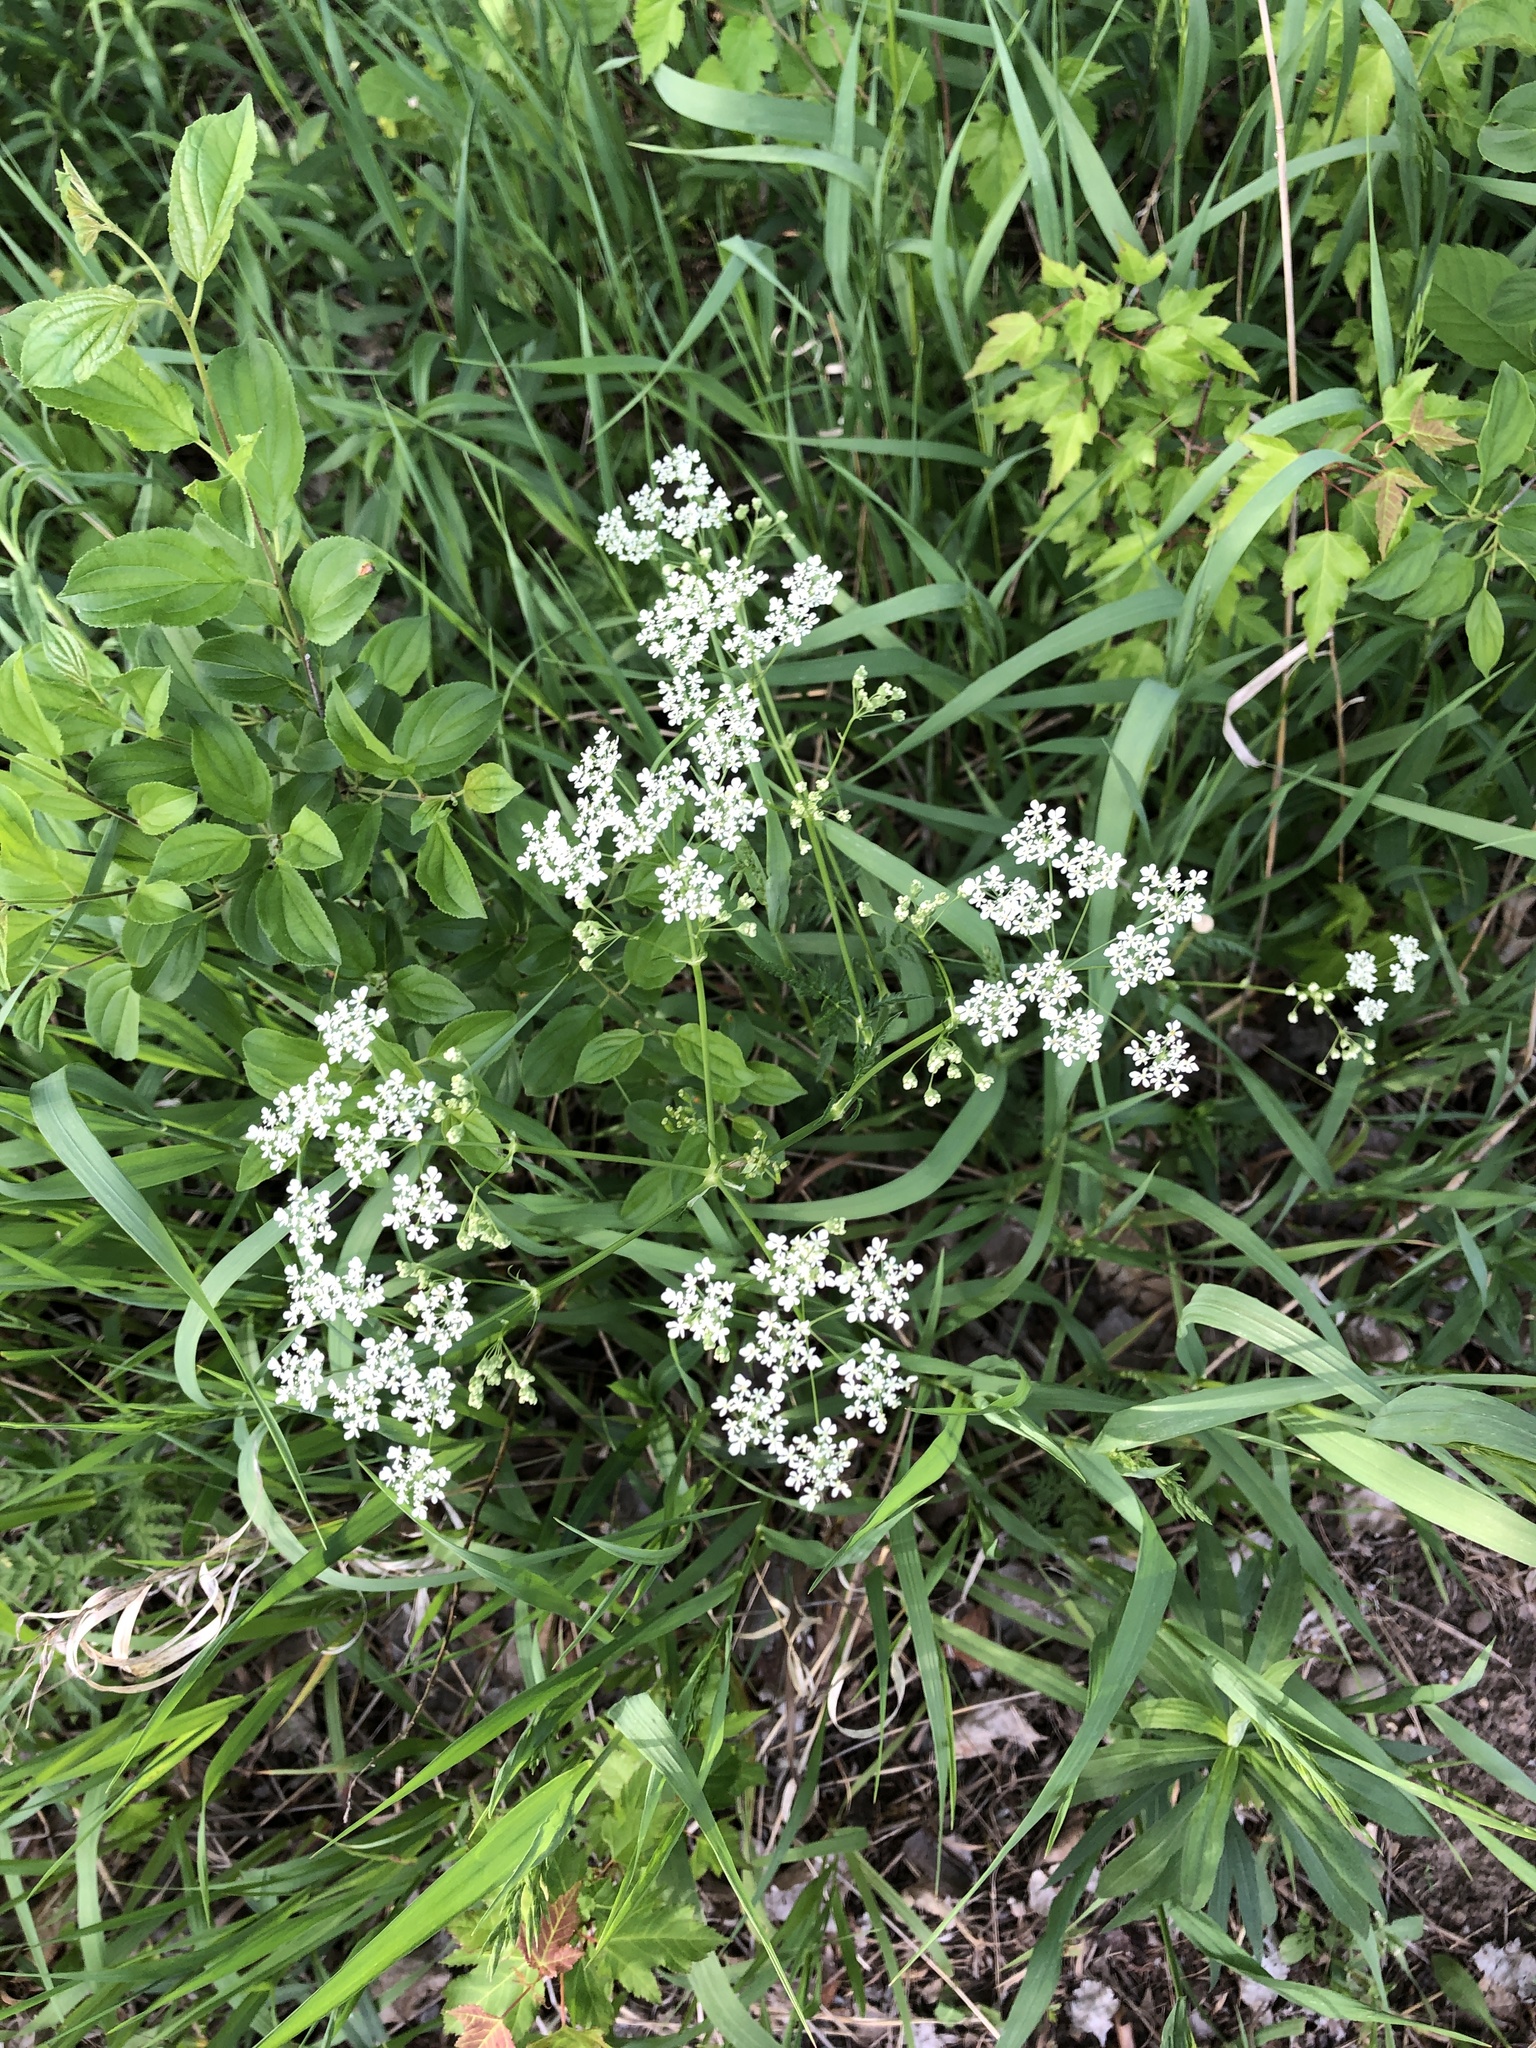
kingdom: Plantae
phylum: Tracheophyta
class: Magnoliopsida
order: Apiales
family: Apiaceae
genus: Anthriscus
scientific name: Anthriscus sylvestris
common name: Cow parsley
